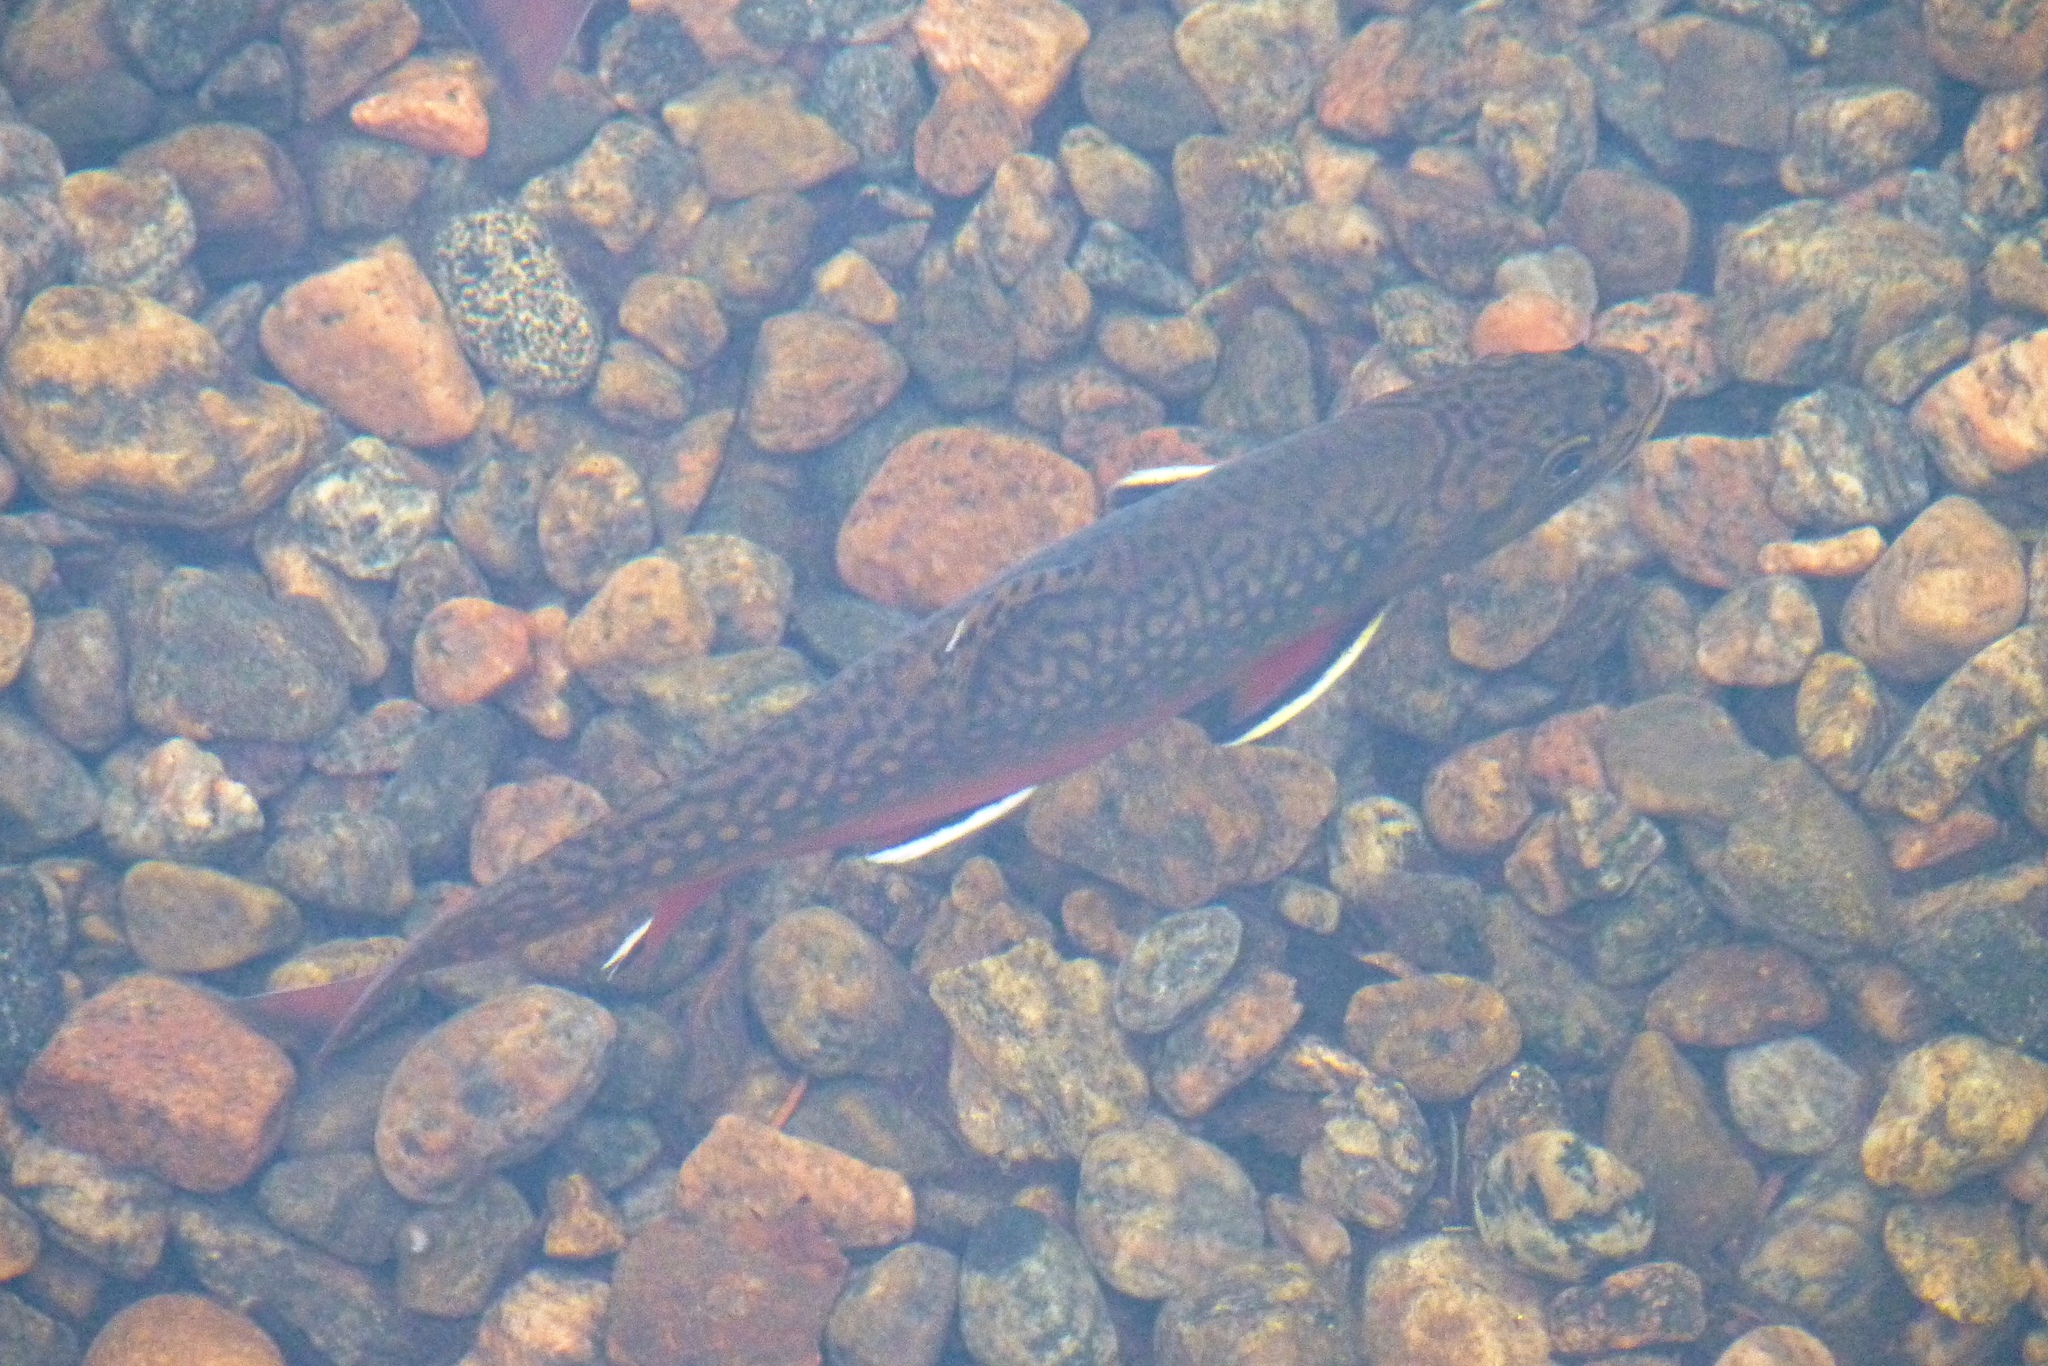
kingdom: Animalia
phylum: Chordata
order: Salmoniformes
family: Salmonidae
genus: Salvelinus
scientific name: Salvelinus fontinalis
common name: Brook trout
